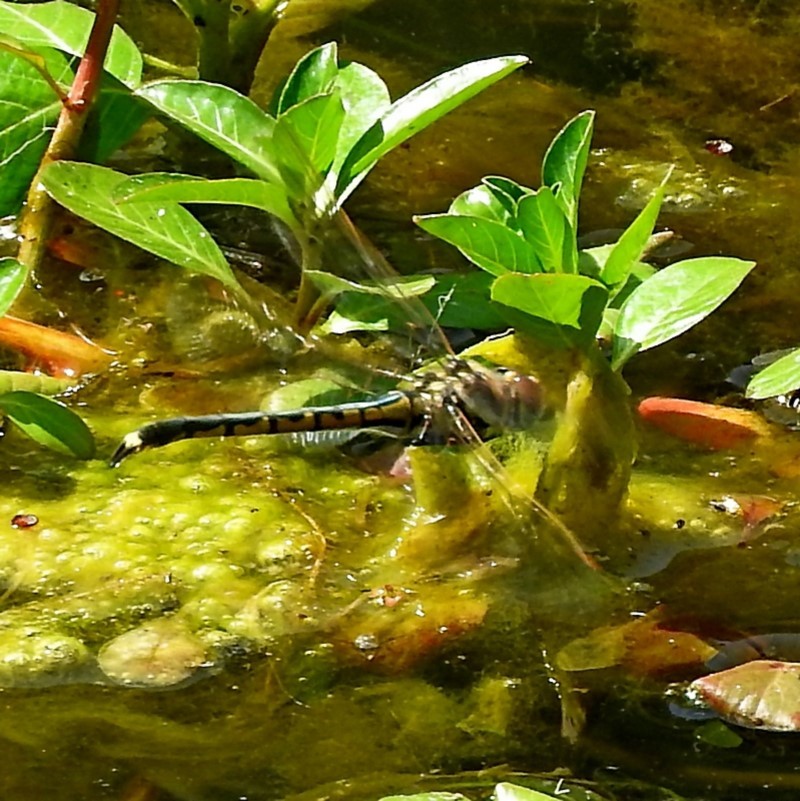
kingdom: Animalia
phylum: Arthropoda
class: Insecta
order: Odonata
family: Corduliidae
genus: Hemicordulia
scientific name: Hemicordulia tau
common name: Tau emerald
